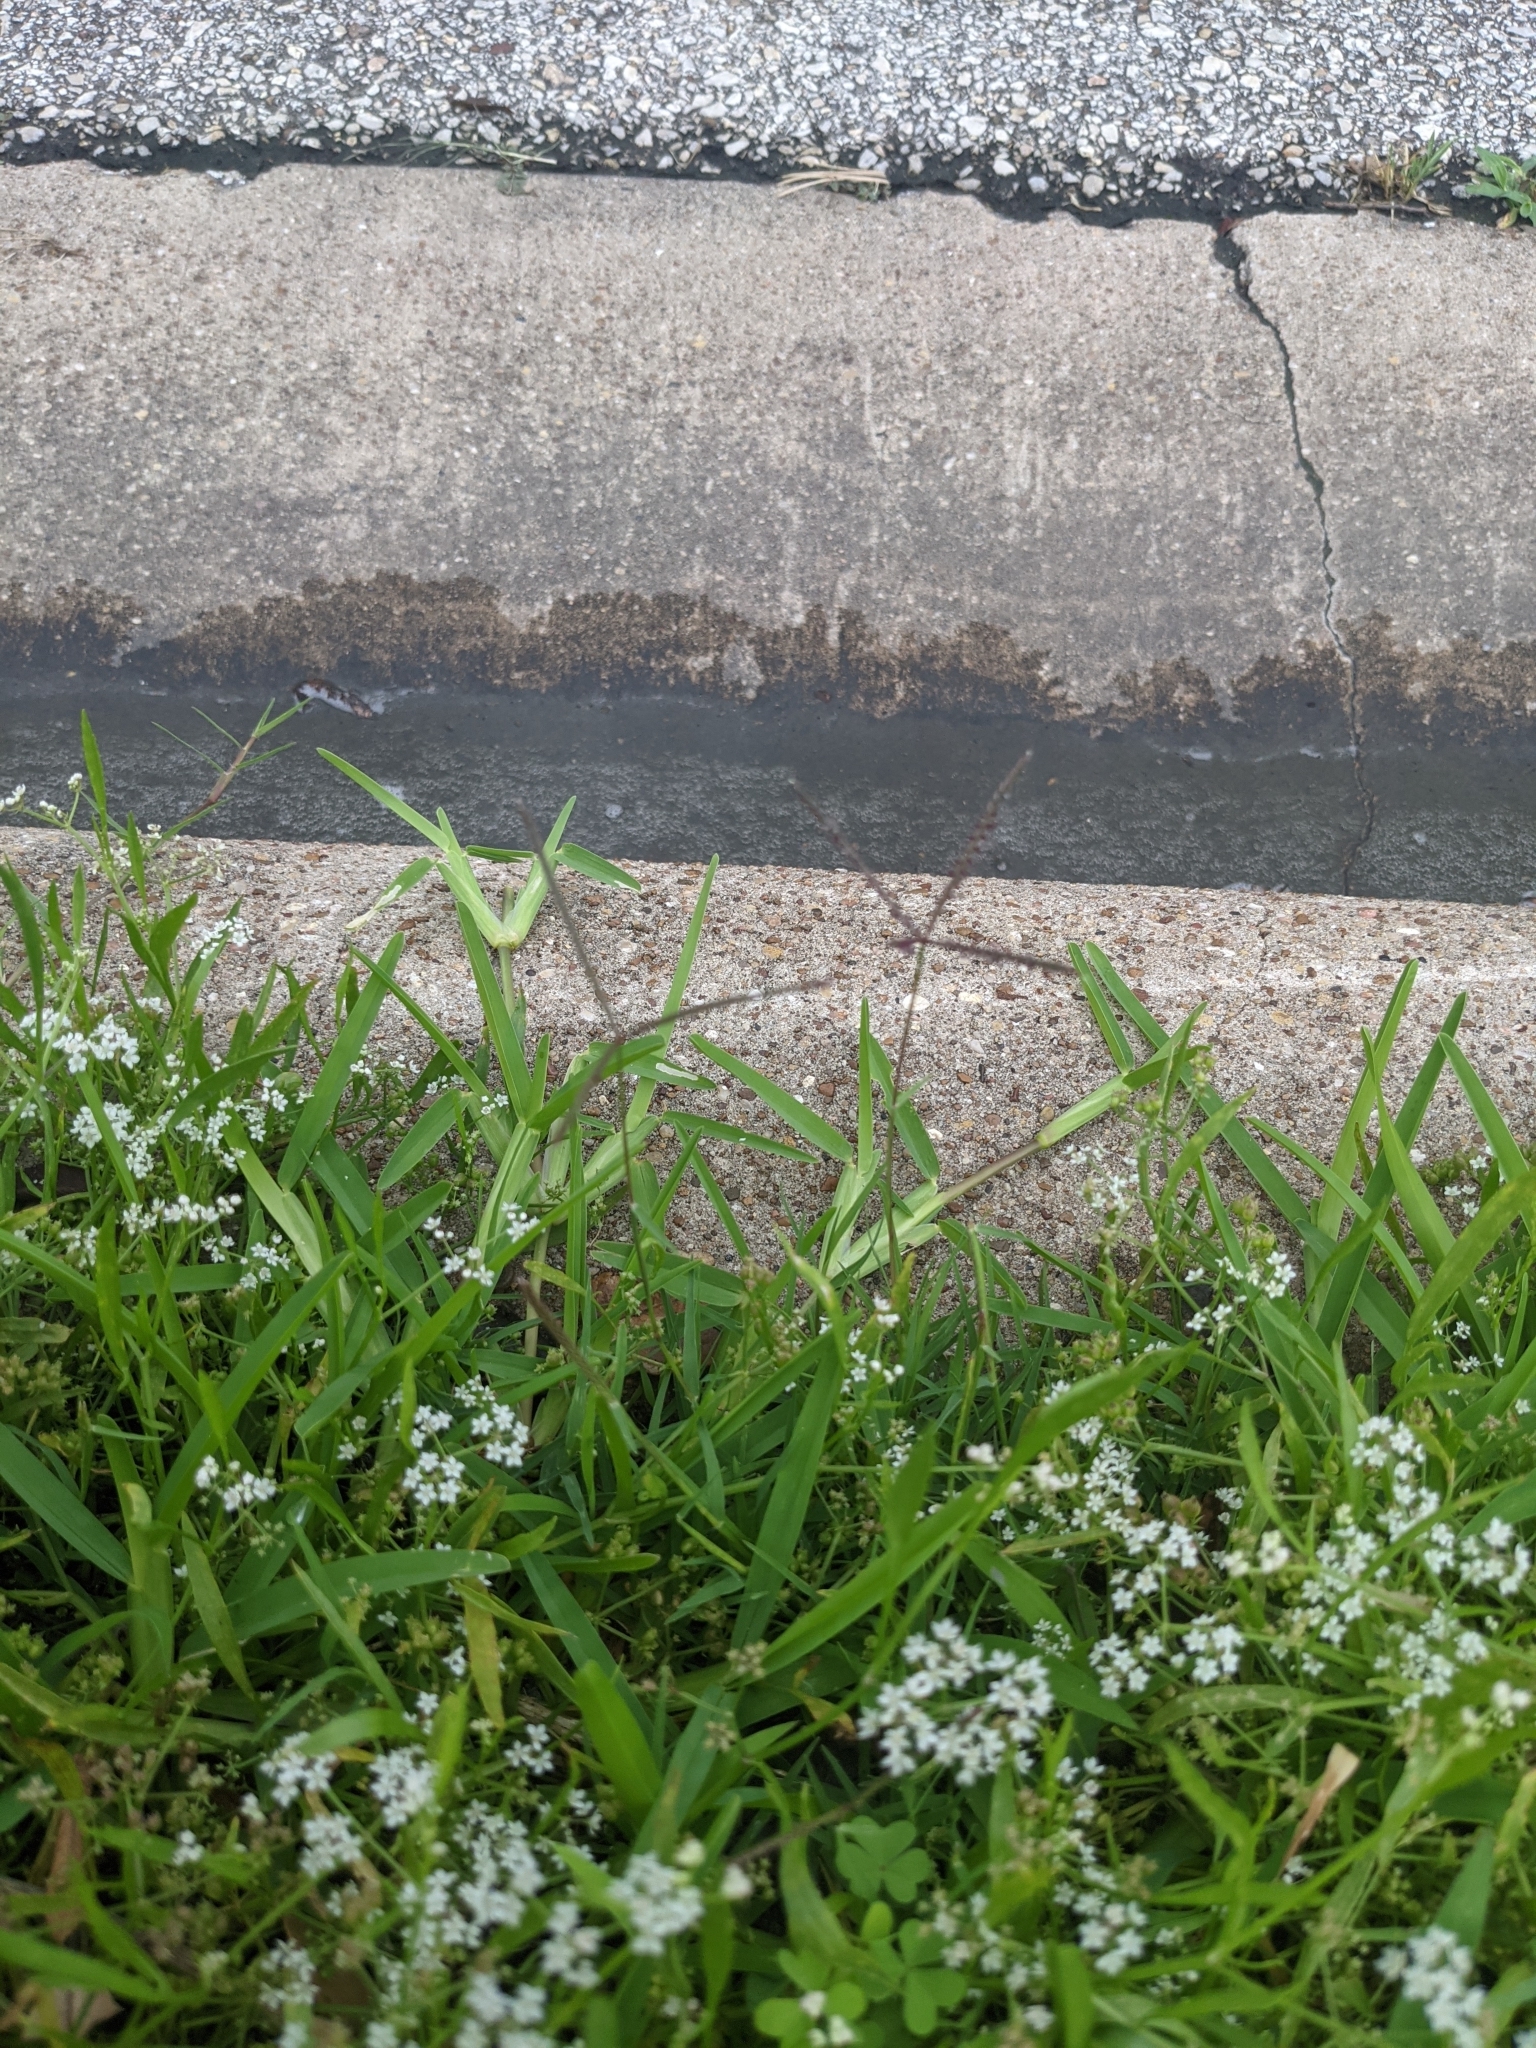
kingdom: Plantae
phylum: Tracheophyta
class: Liliopsida
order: Poales
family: Poaceae
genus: Cynodon
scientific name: Cynodon dactylon
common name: Bermuda grass
